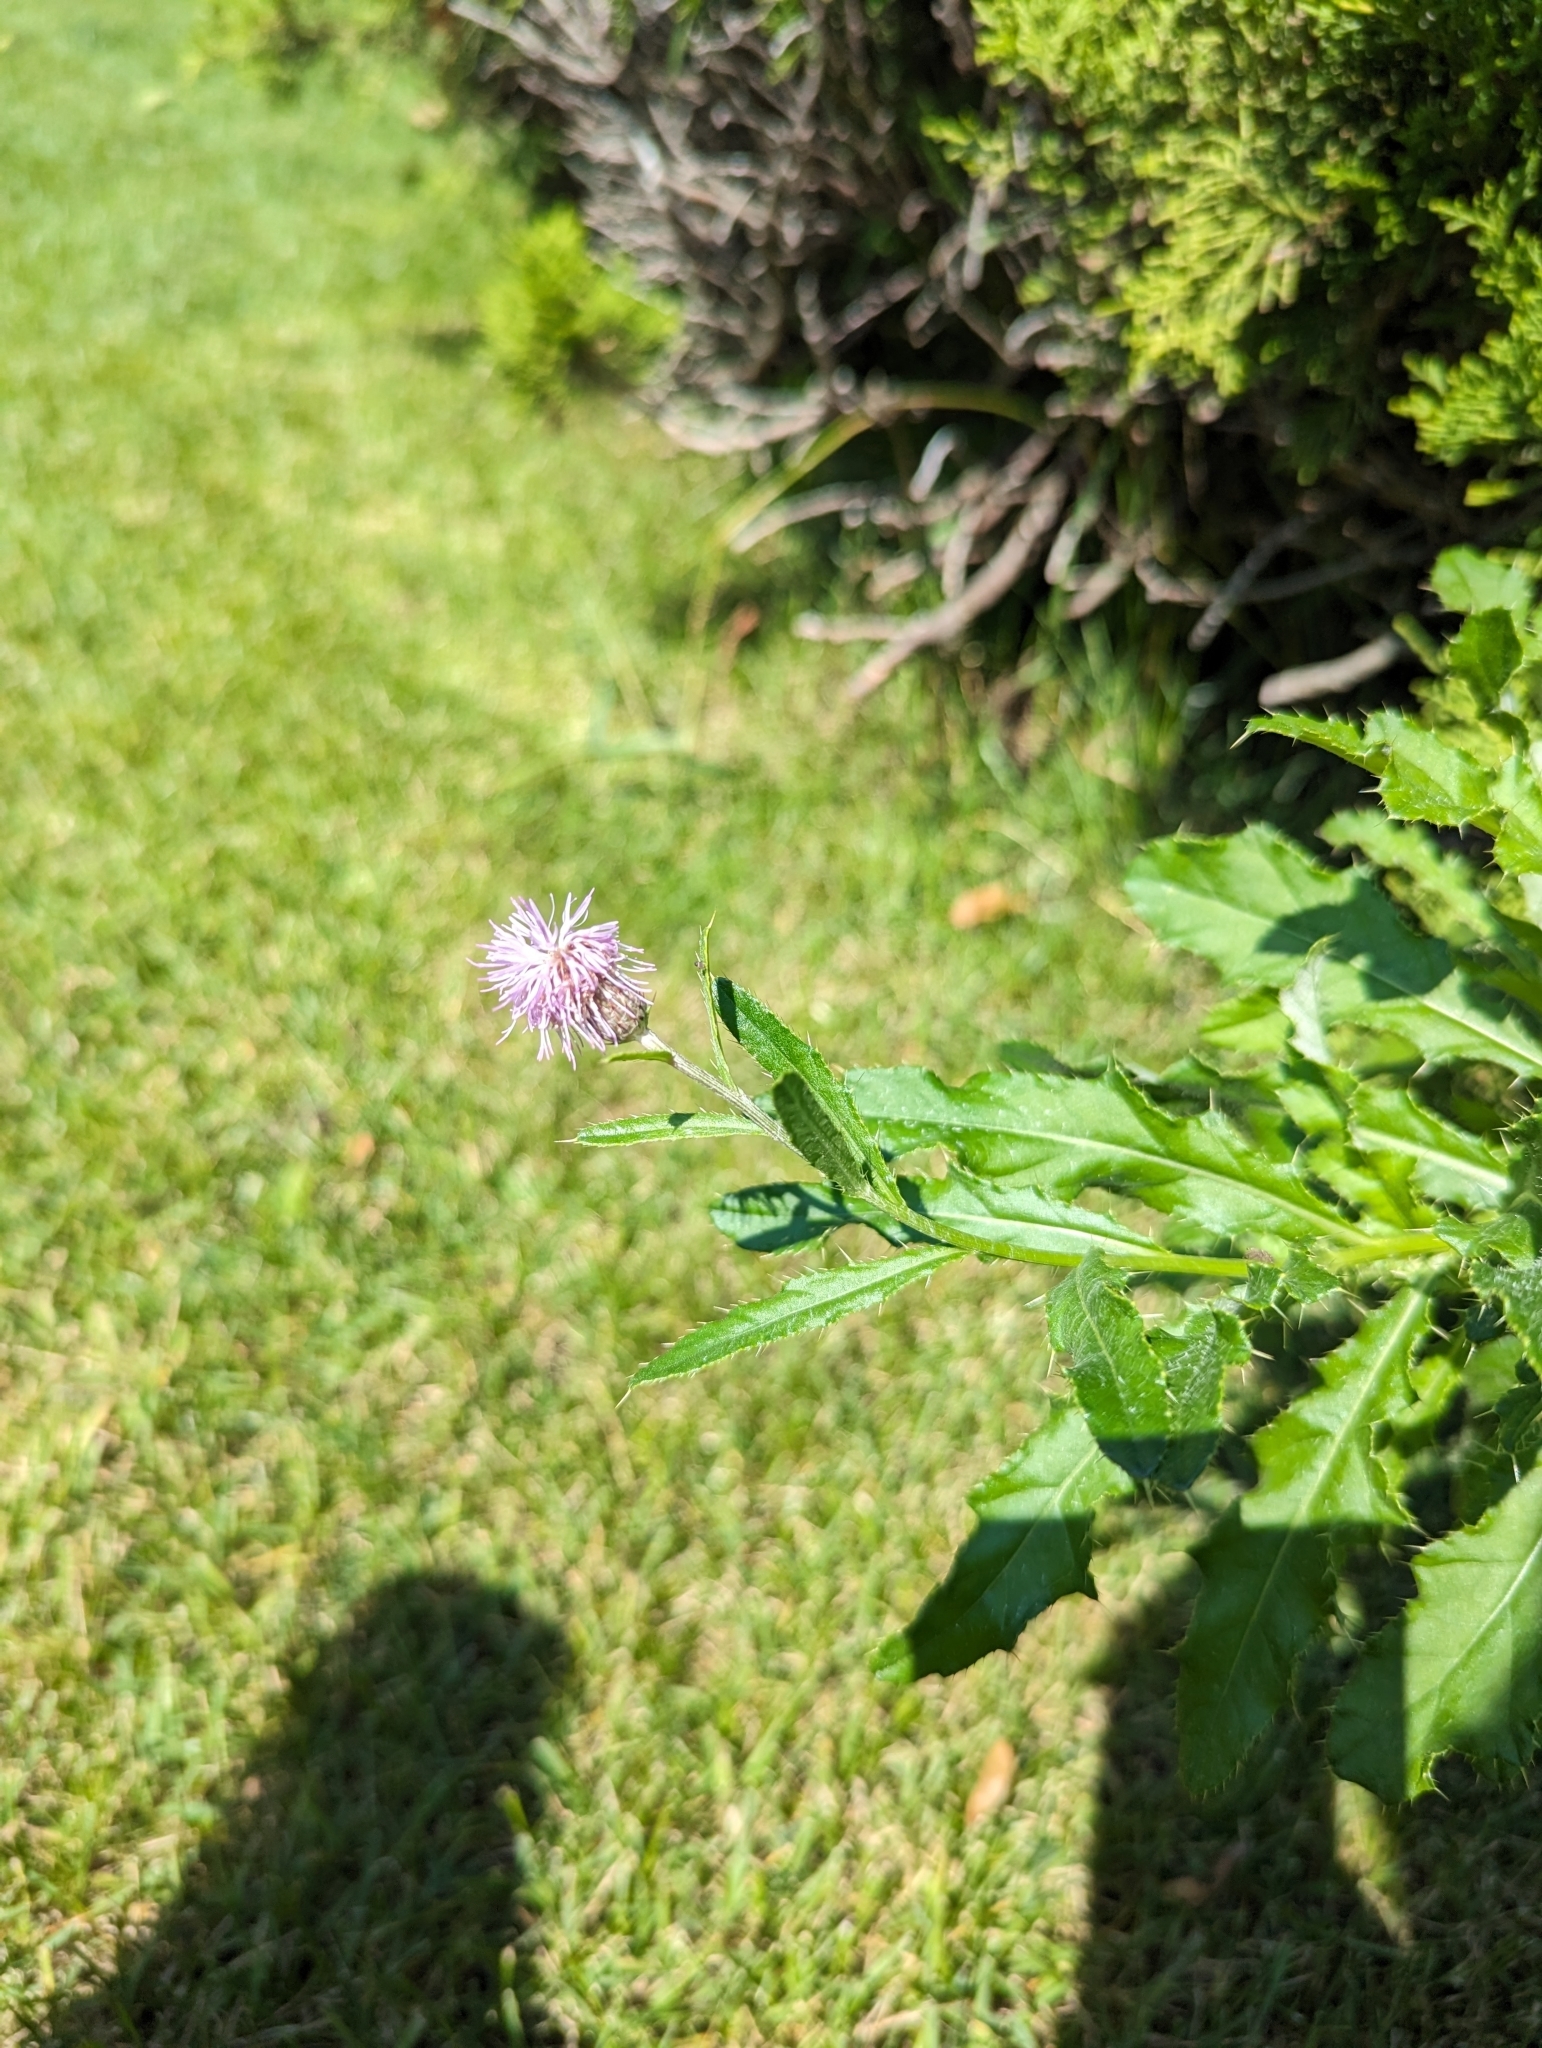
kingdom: Plantae
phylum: Tracheophyta
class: Magnoliopsida
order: Asterales
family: Asteraceae
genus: Cirsium
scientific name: Cirsium arvense
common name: Creeping thistle
